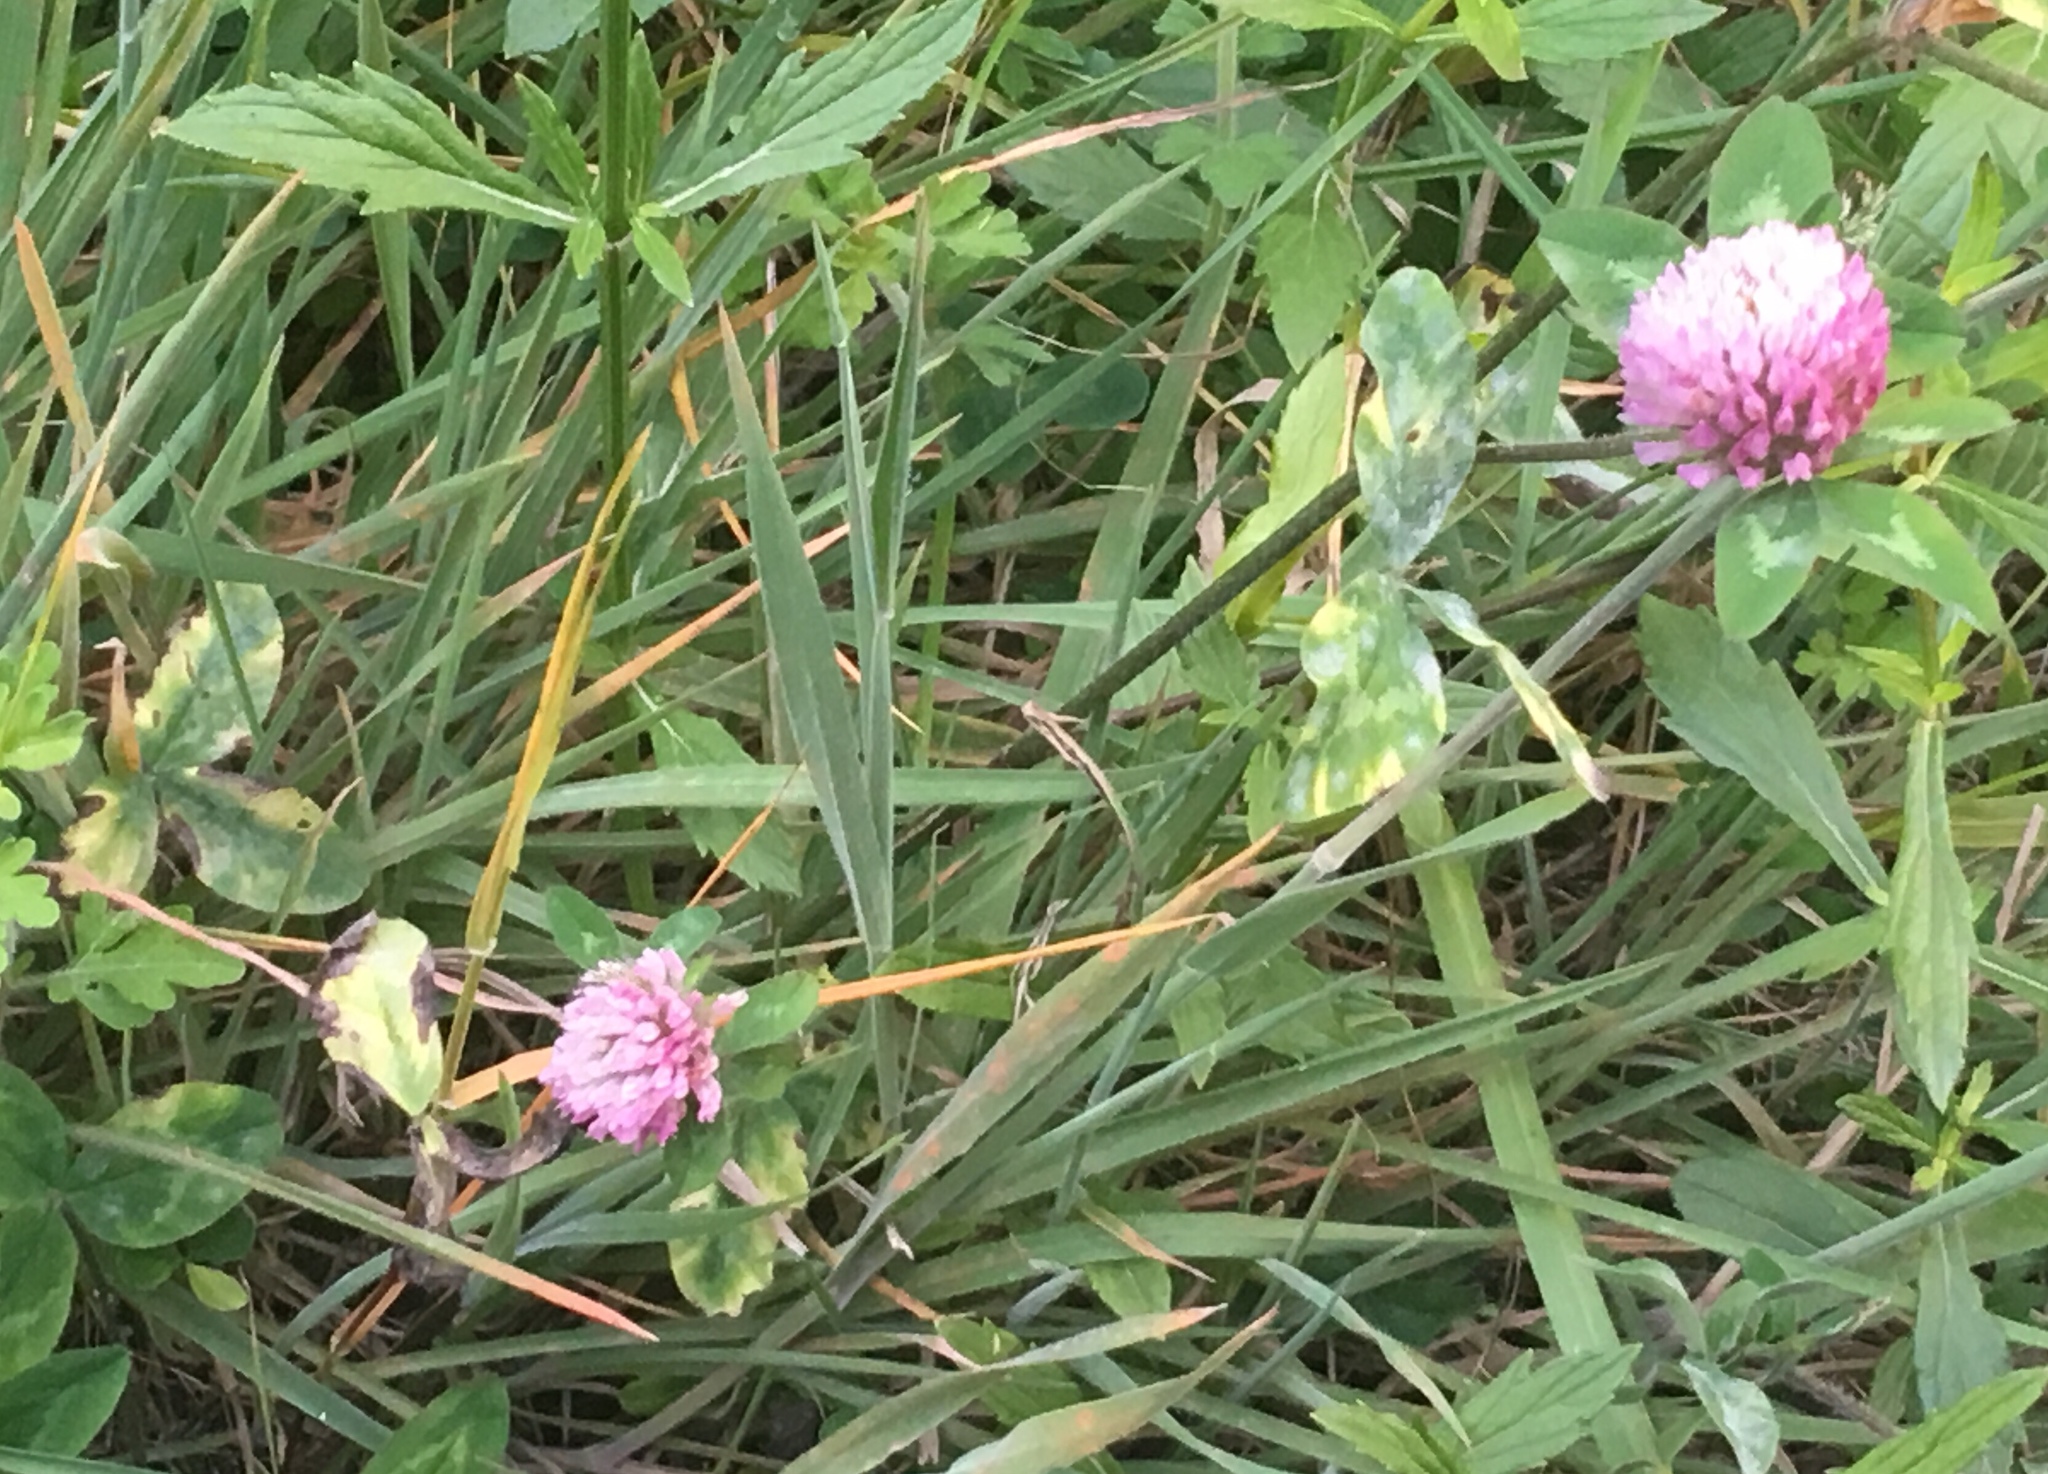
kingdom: Plantae
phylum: Tracheophyta
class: Magnoliopsida
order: Fabales
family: Fabaceae
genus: Trifolium
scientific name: Trifolium pratense
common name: Red clover
